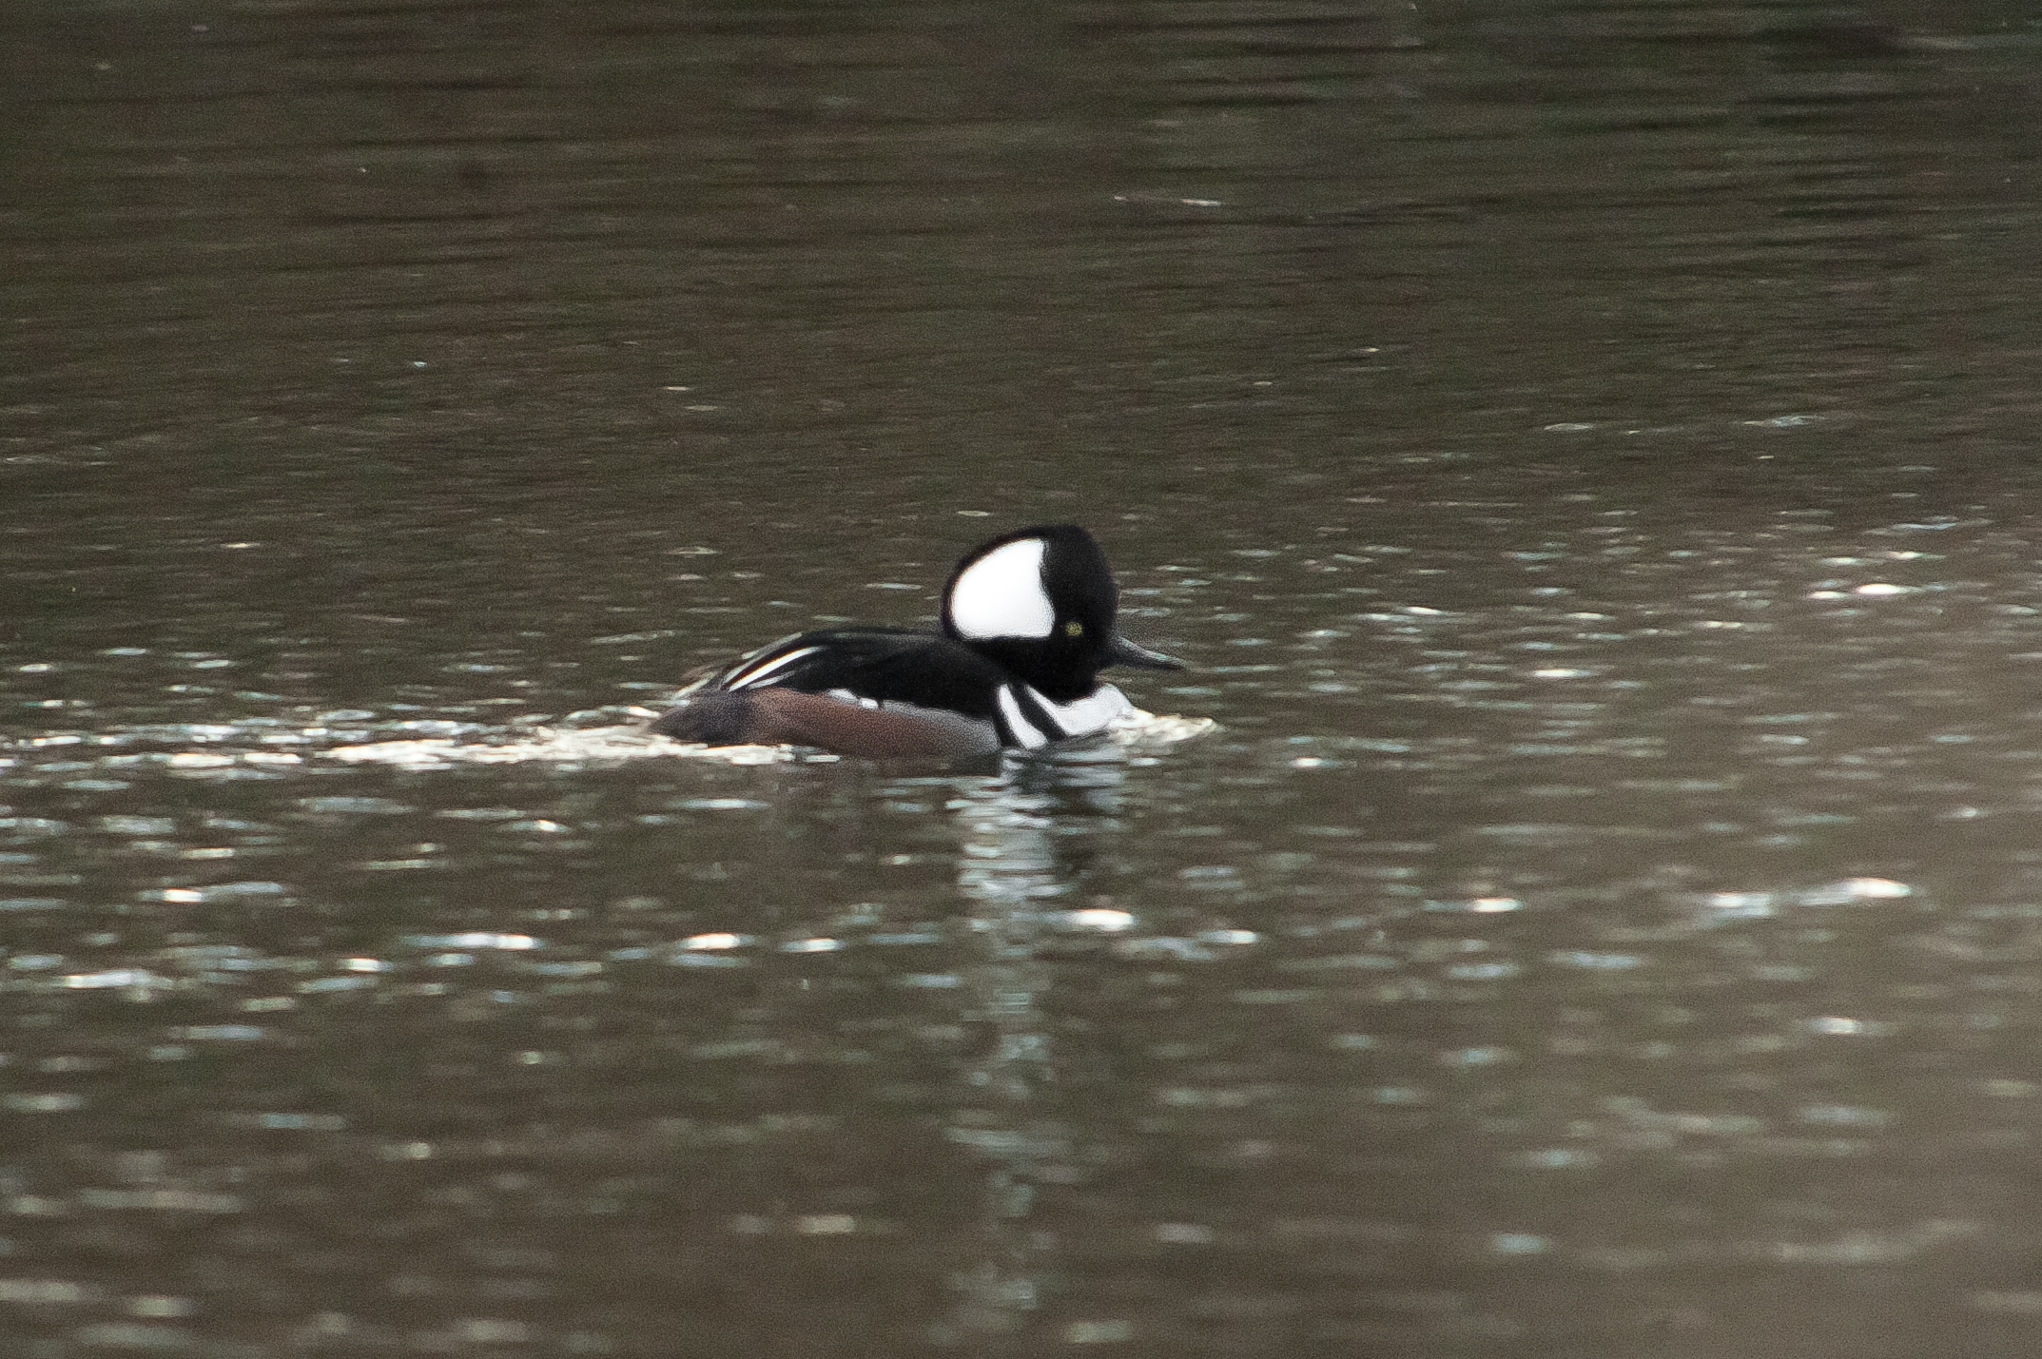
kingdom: Animalia
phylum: Chordata
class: Aves
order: Anseriformes
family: Anatidae
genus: Lophodytes
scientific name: Lophodytes cucullatus
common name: Hooded merganser
